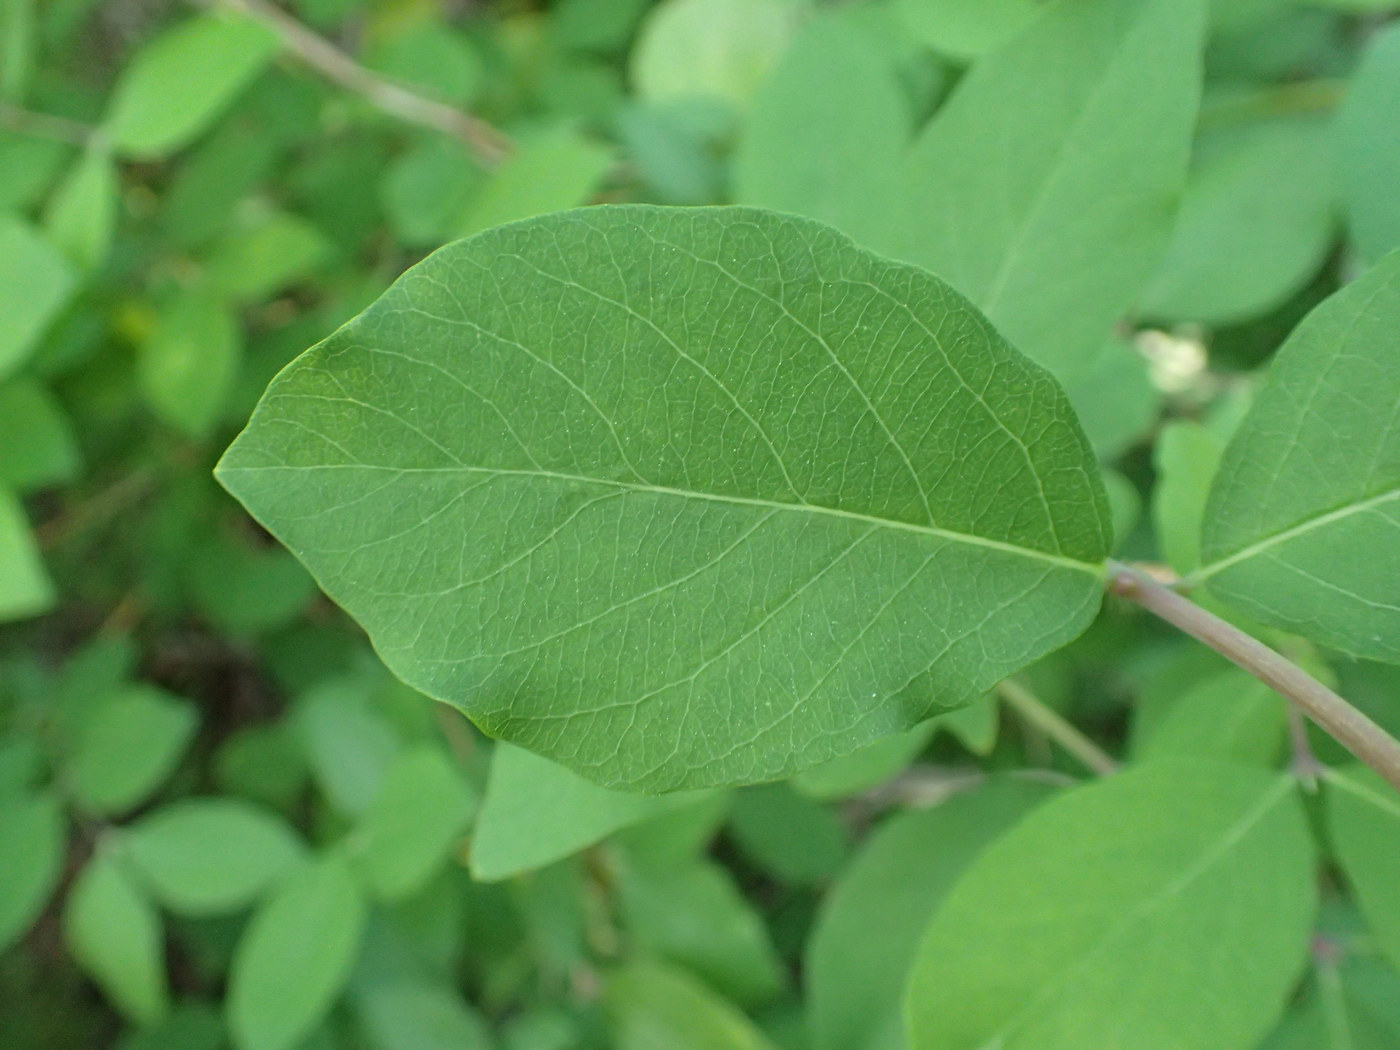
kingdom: Plantae
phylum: Tracheophyta
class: Magnoliopsida
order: Dipsacales
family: Caprifoliaceae
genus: Lonicera
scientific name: Lonicera fragrantissima
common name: Fragrant honeysuckle
